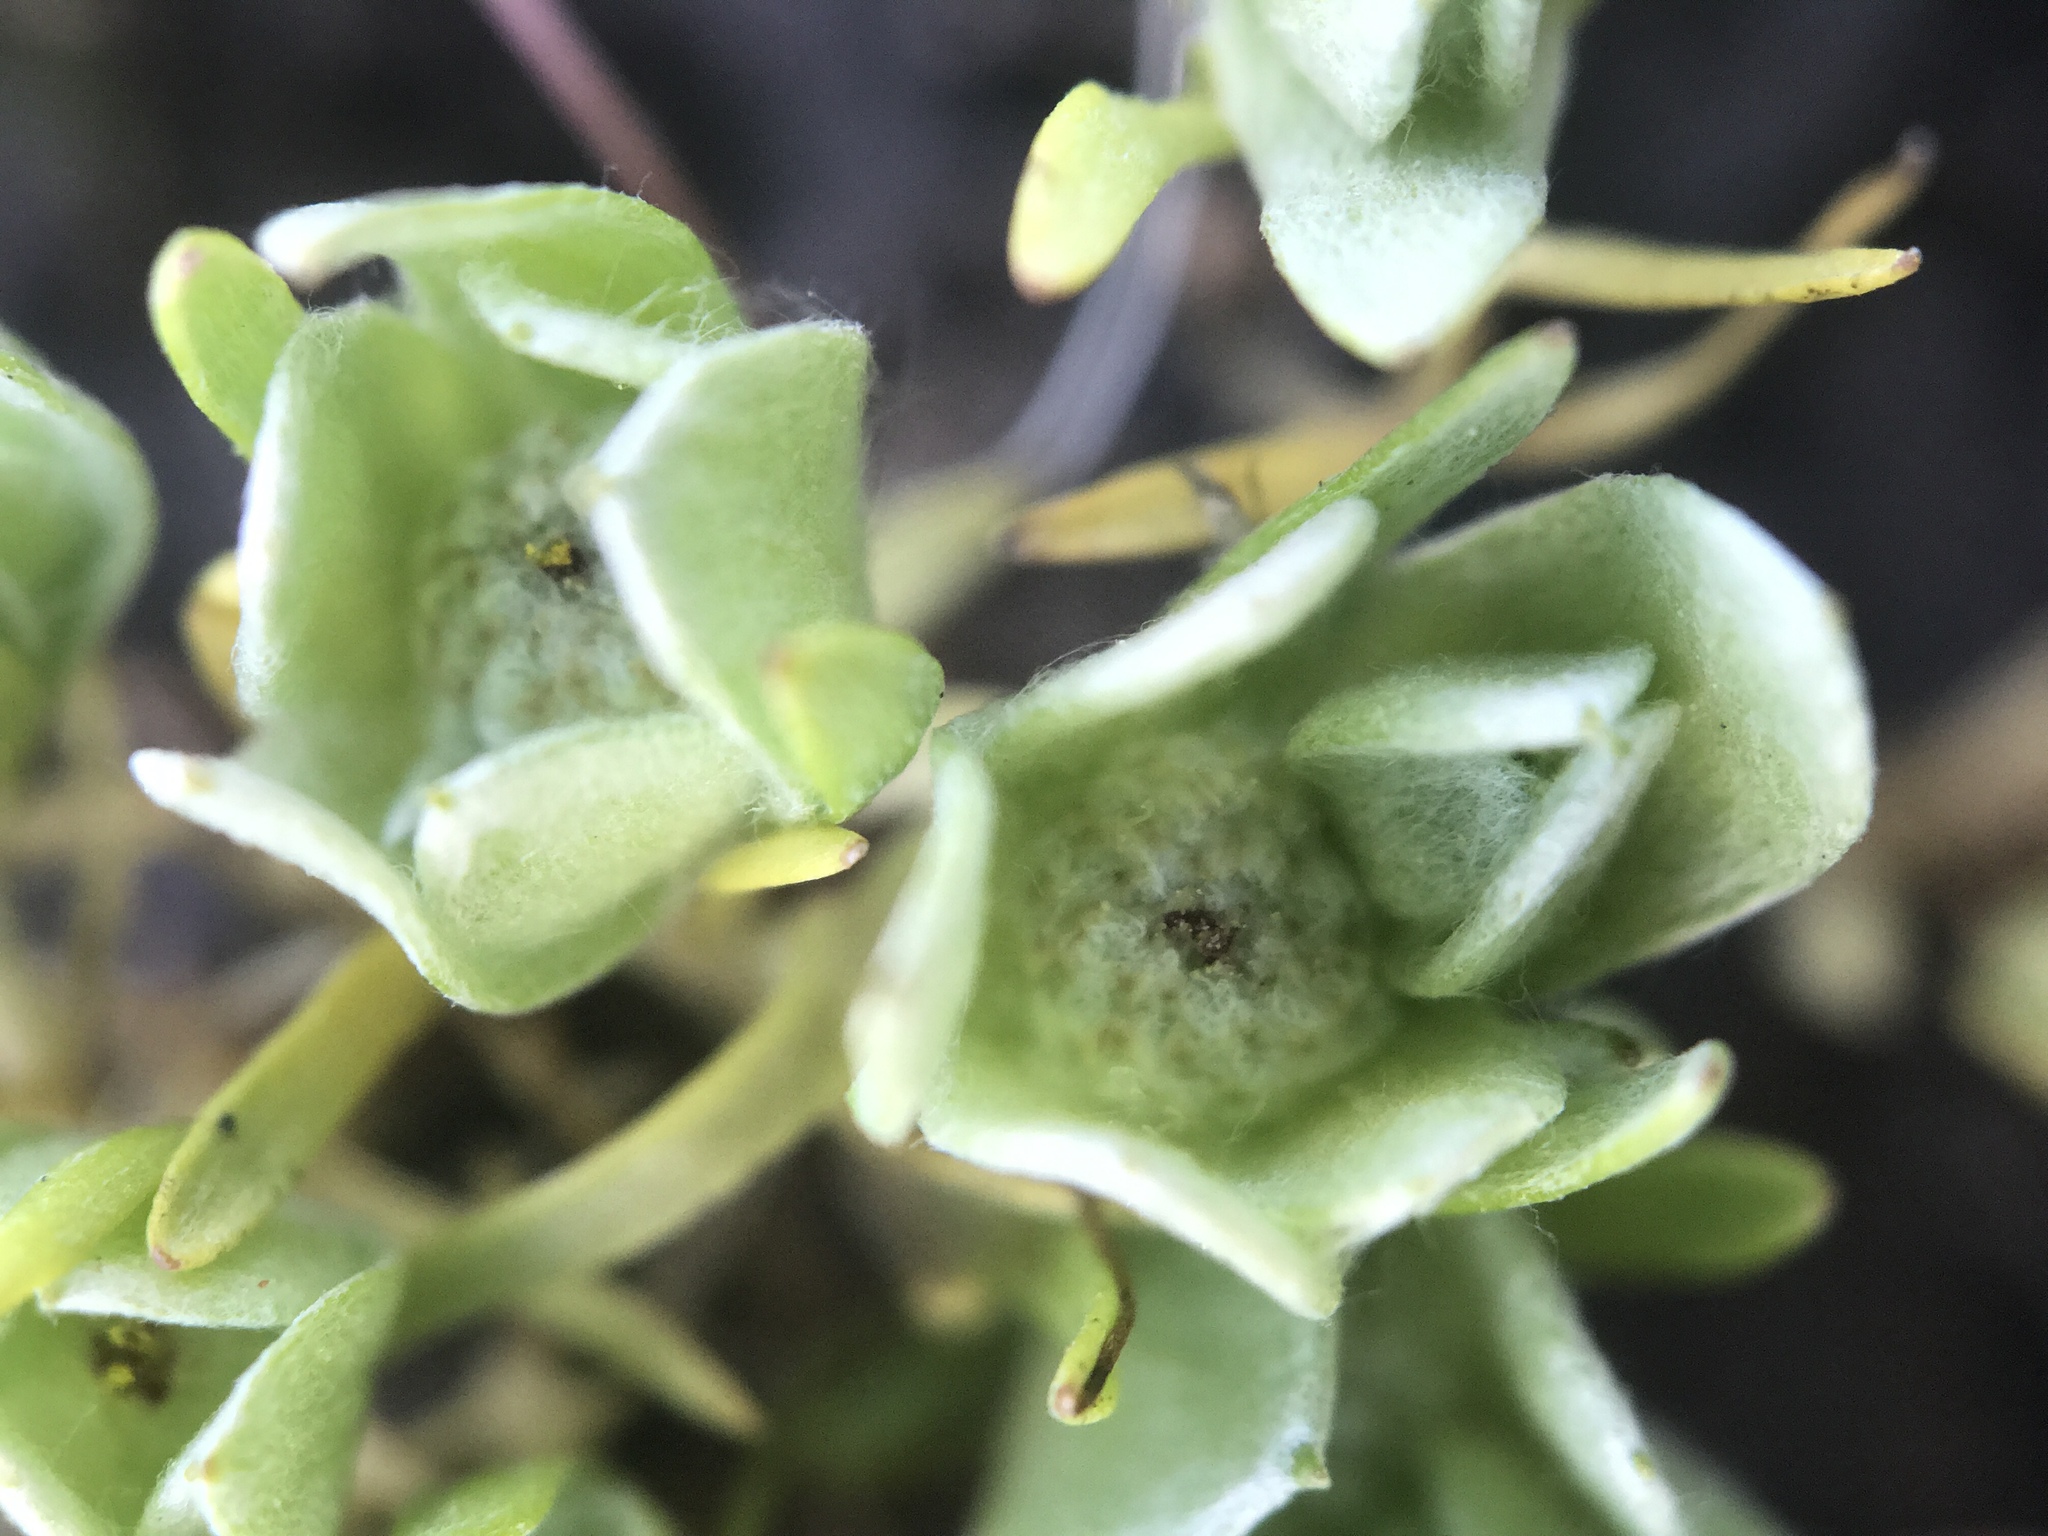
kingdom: Plantae
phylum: Tracheophyta
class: Magnoliopsida
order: Asterales
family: Asteraceae
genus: Psilocarphus
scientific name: Psilocarphus chilensis
